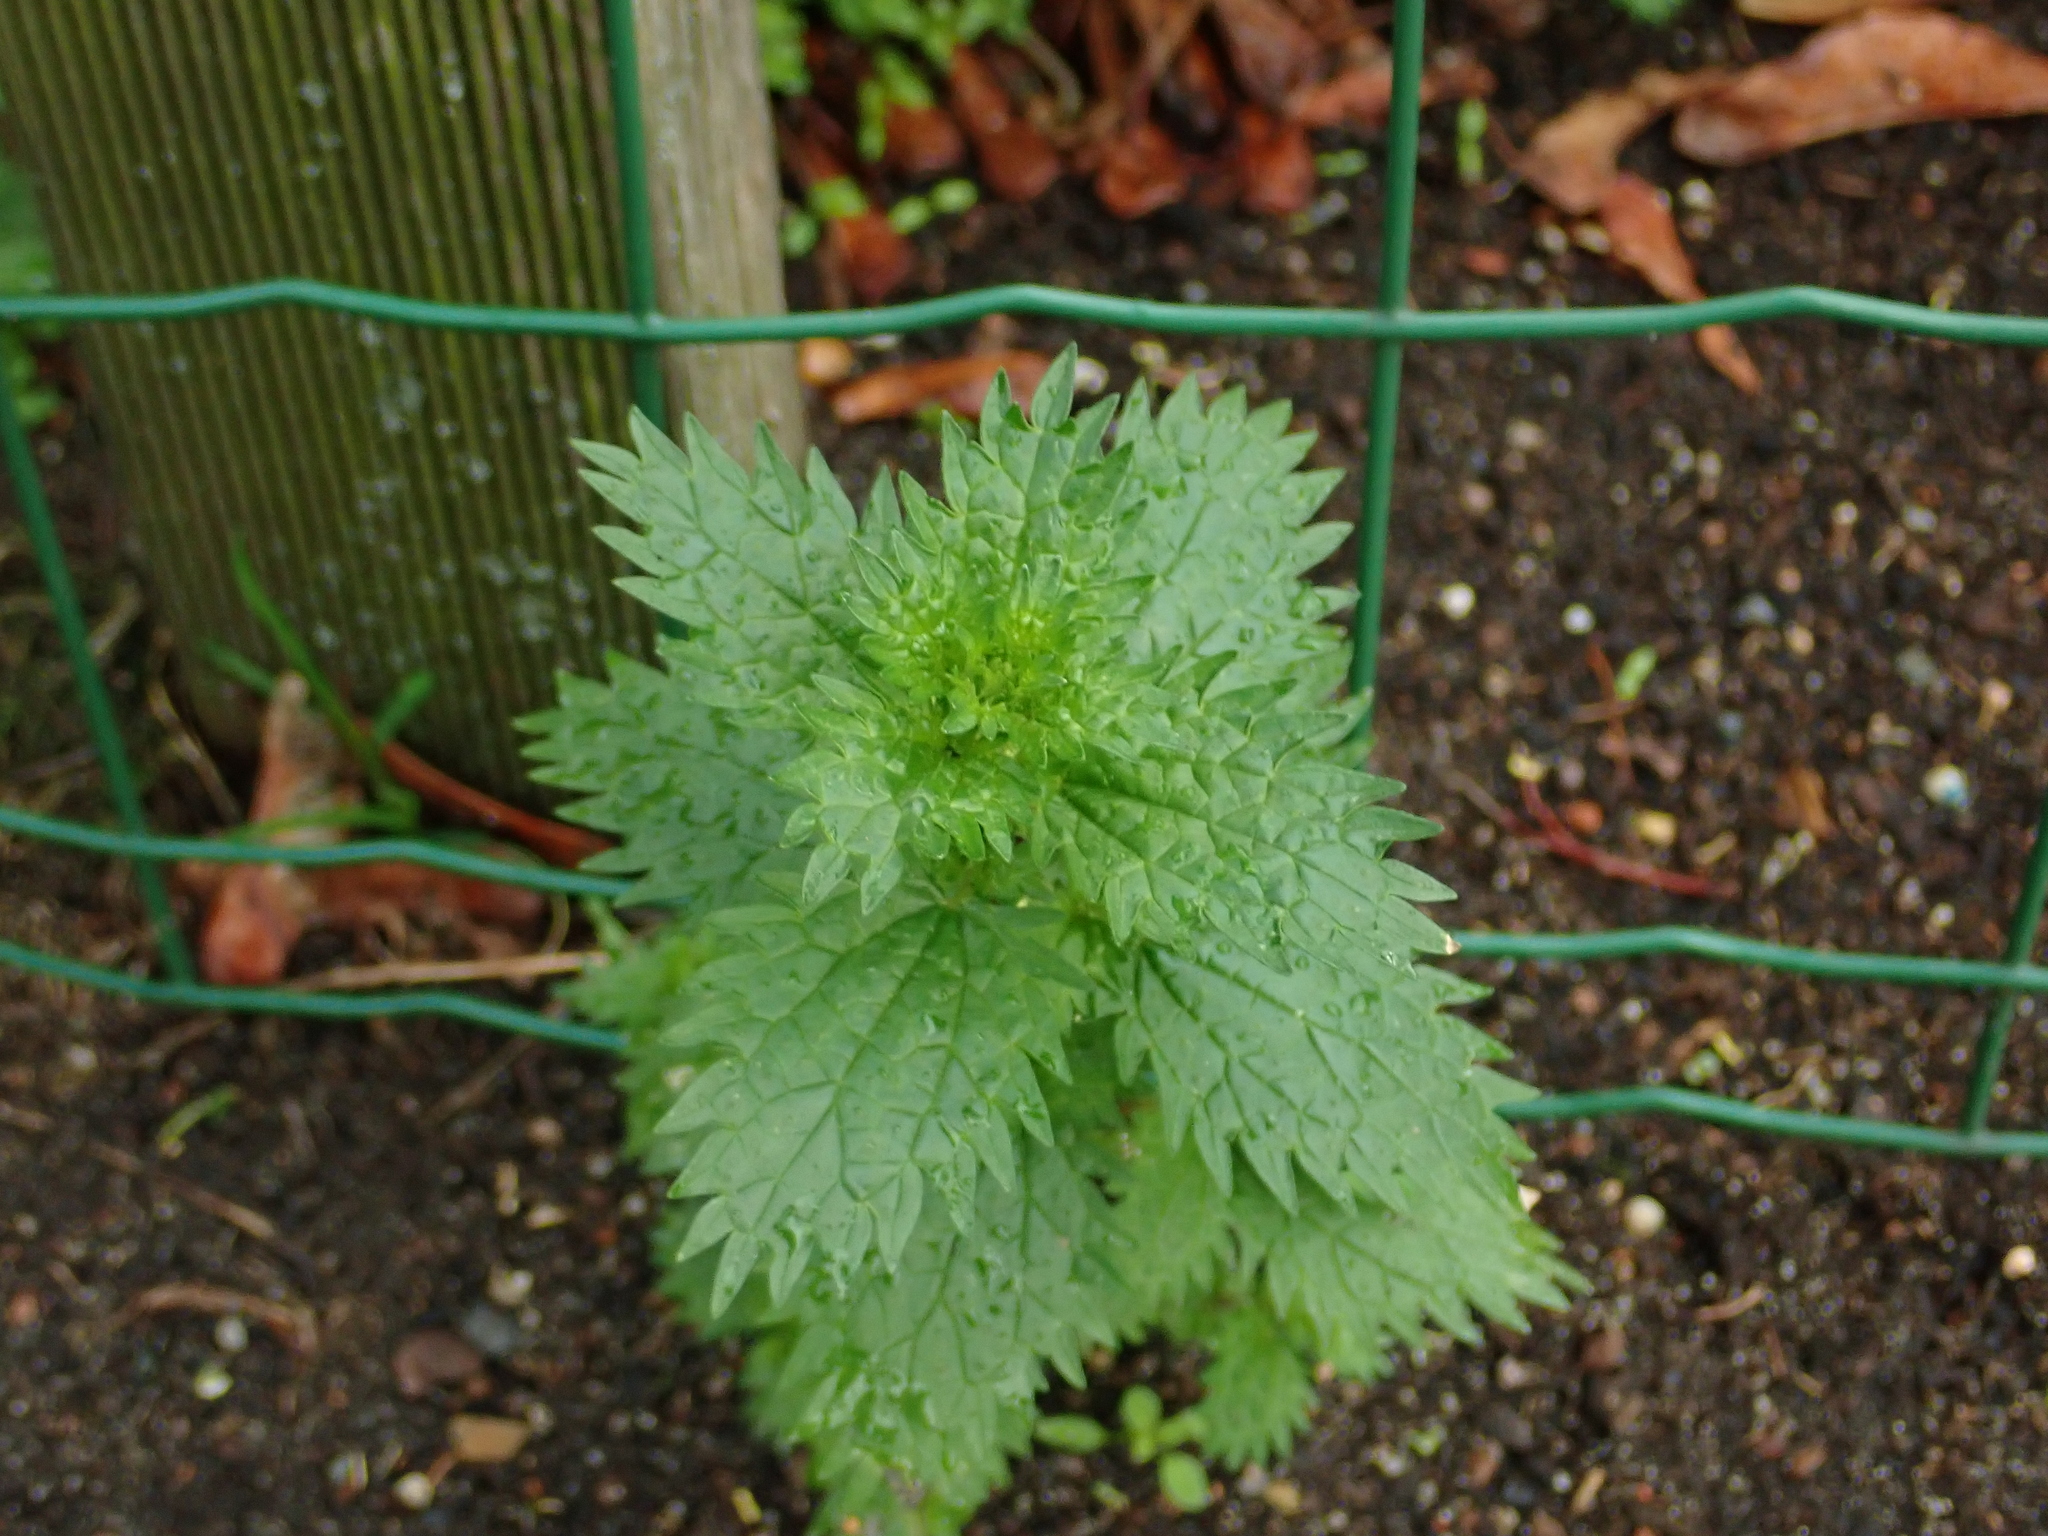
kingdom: Plantae
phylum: Tracheophyta
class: Magnoliopsida
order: Rosales
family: Urticaceae
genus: Urtica
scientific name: Urtica urens
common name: Dwarf nettle
